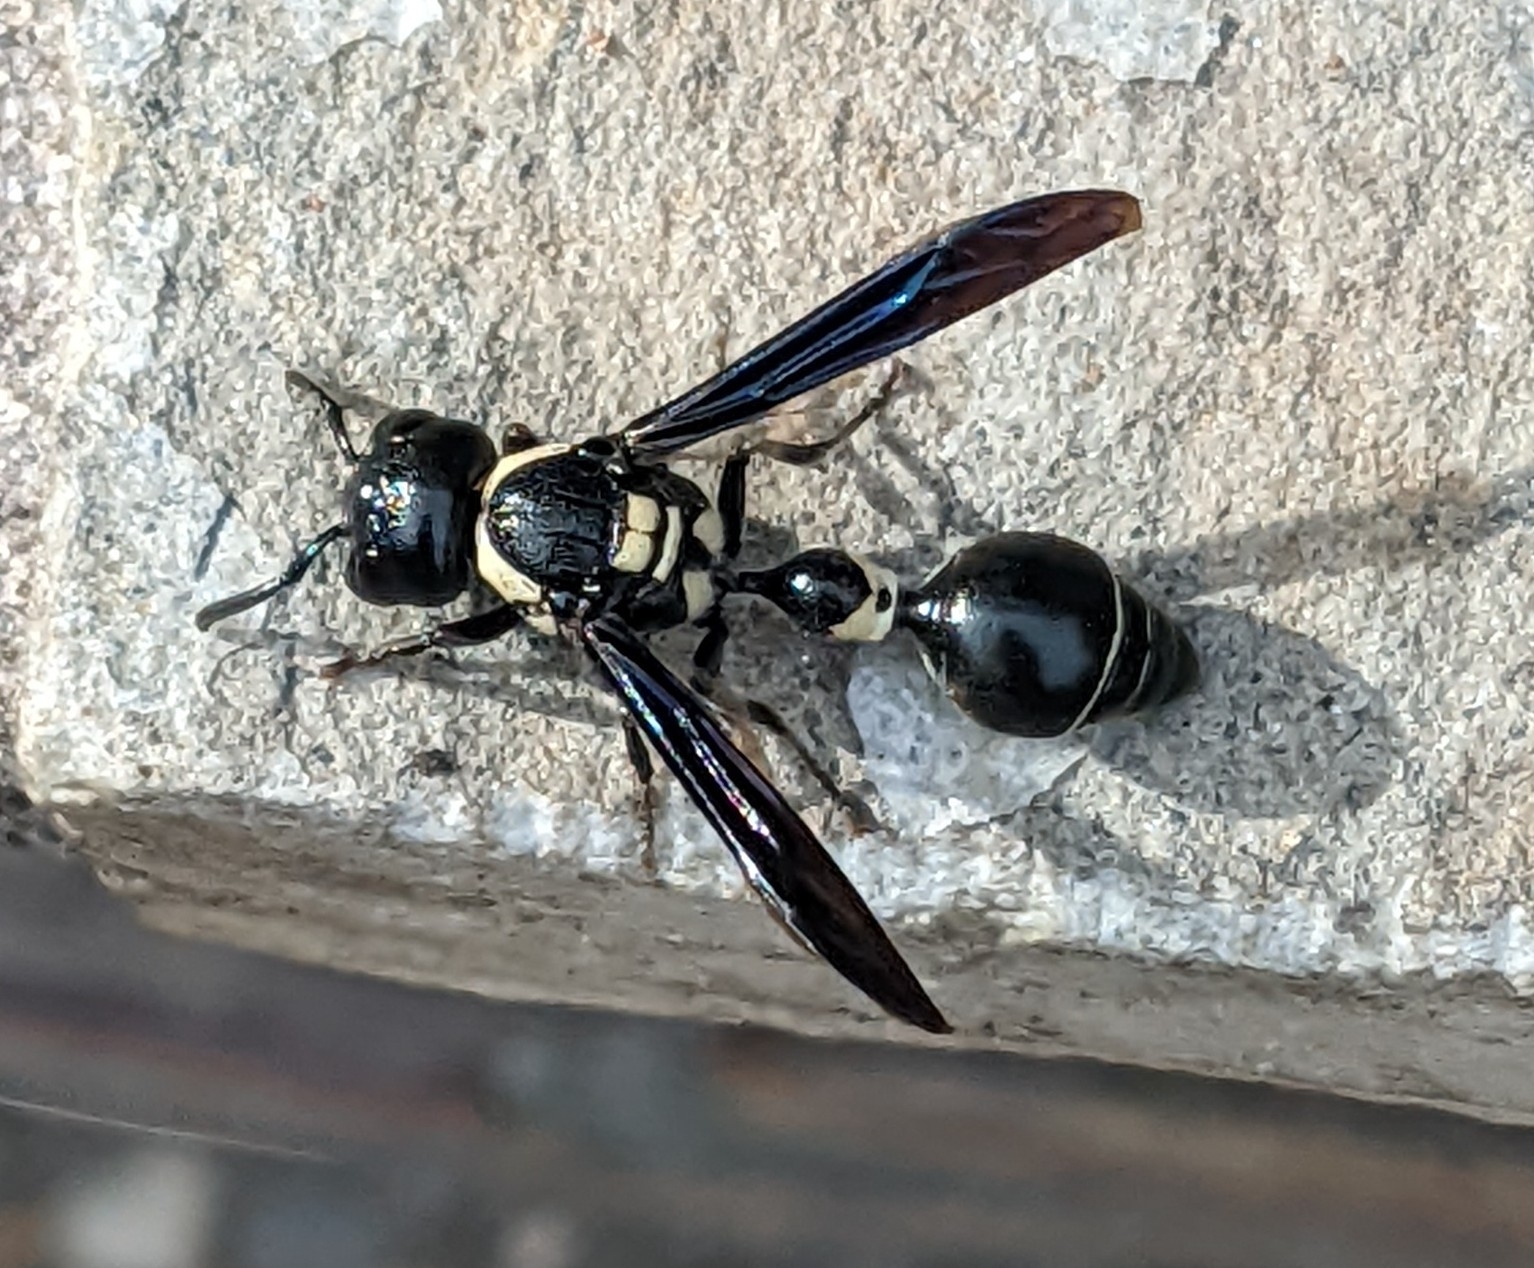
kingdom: Animalia
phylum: Arthropoda
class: Insecta
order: Hymenoptera
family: Eumenidae
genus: Zethus
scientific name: Zethus spinipes
